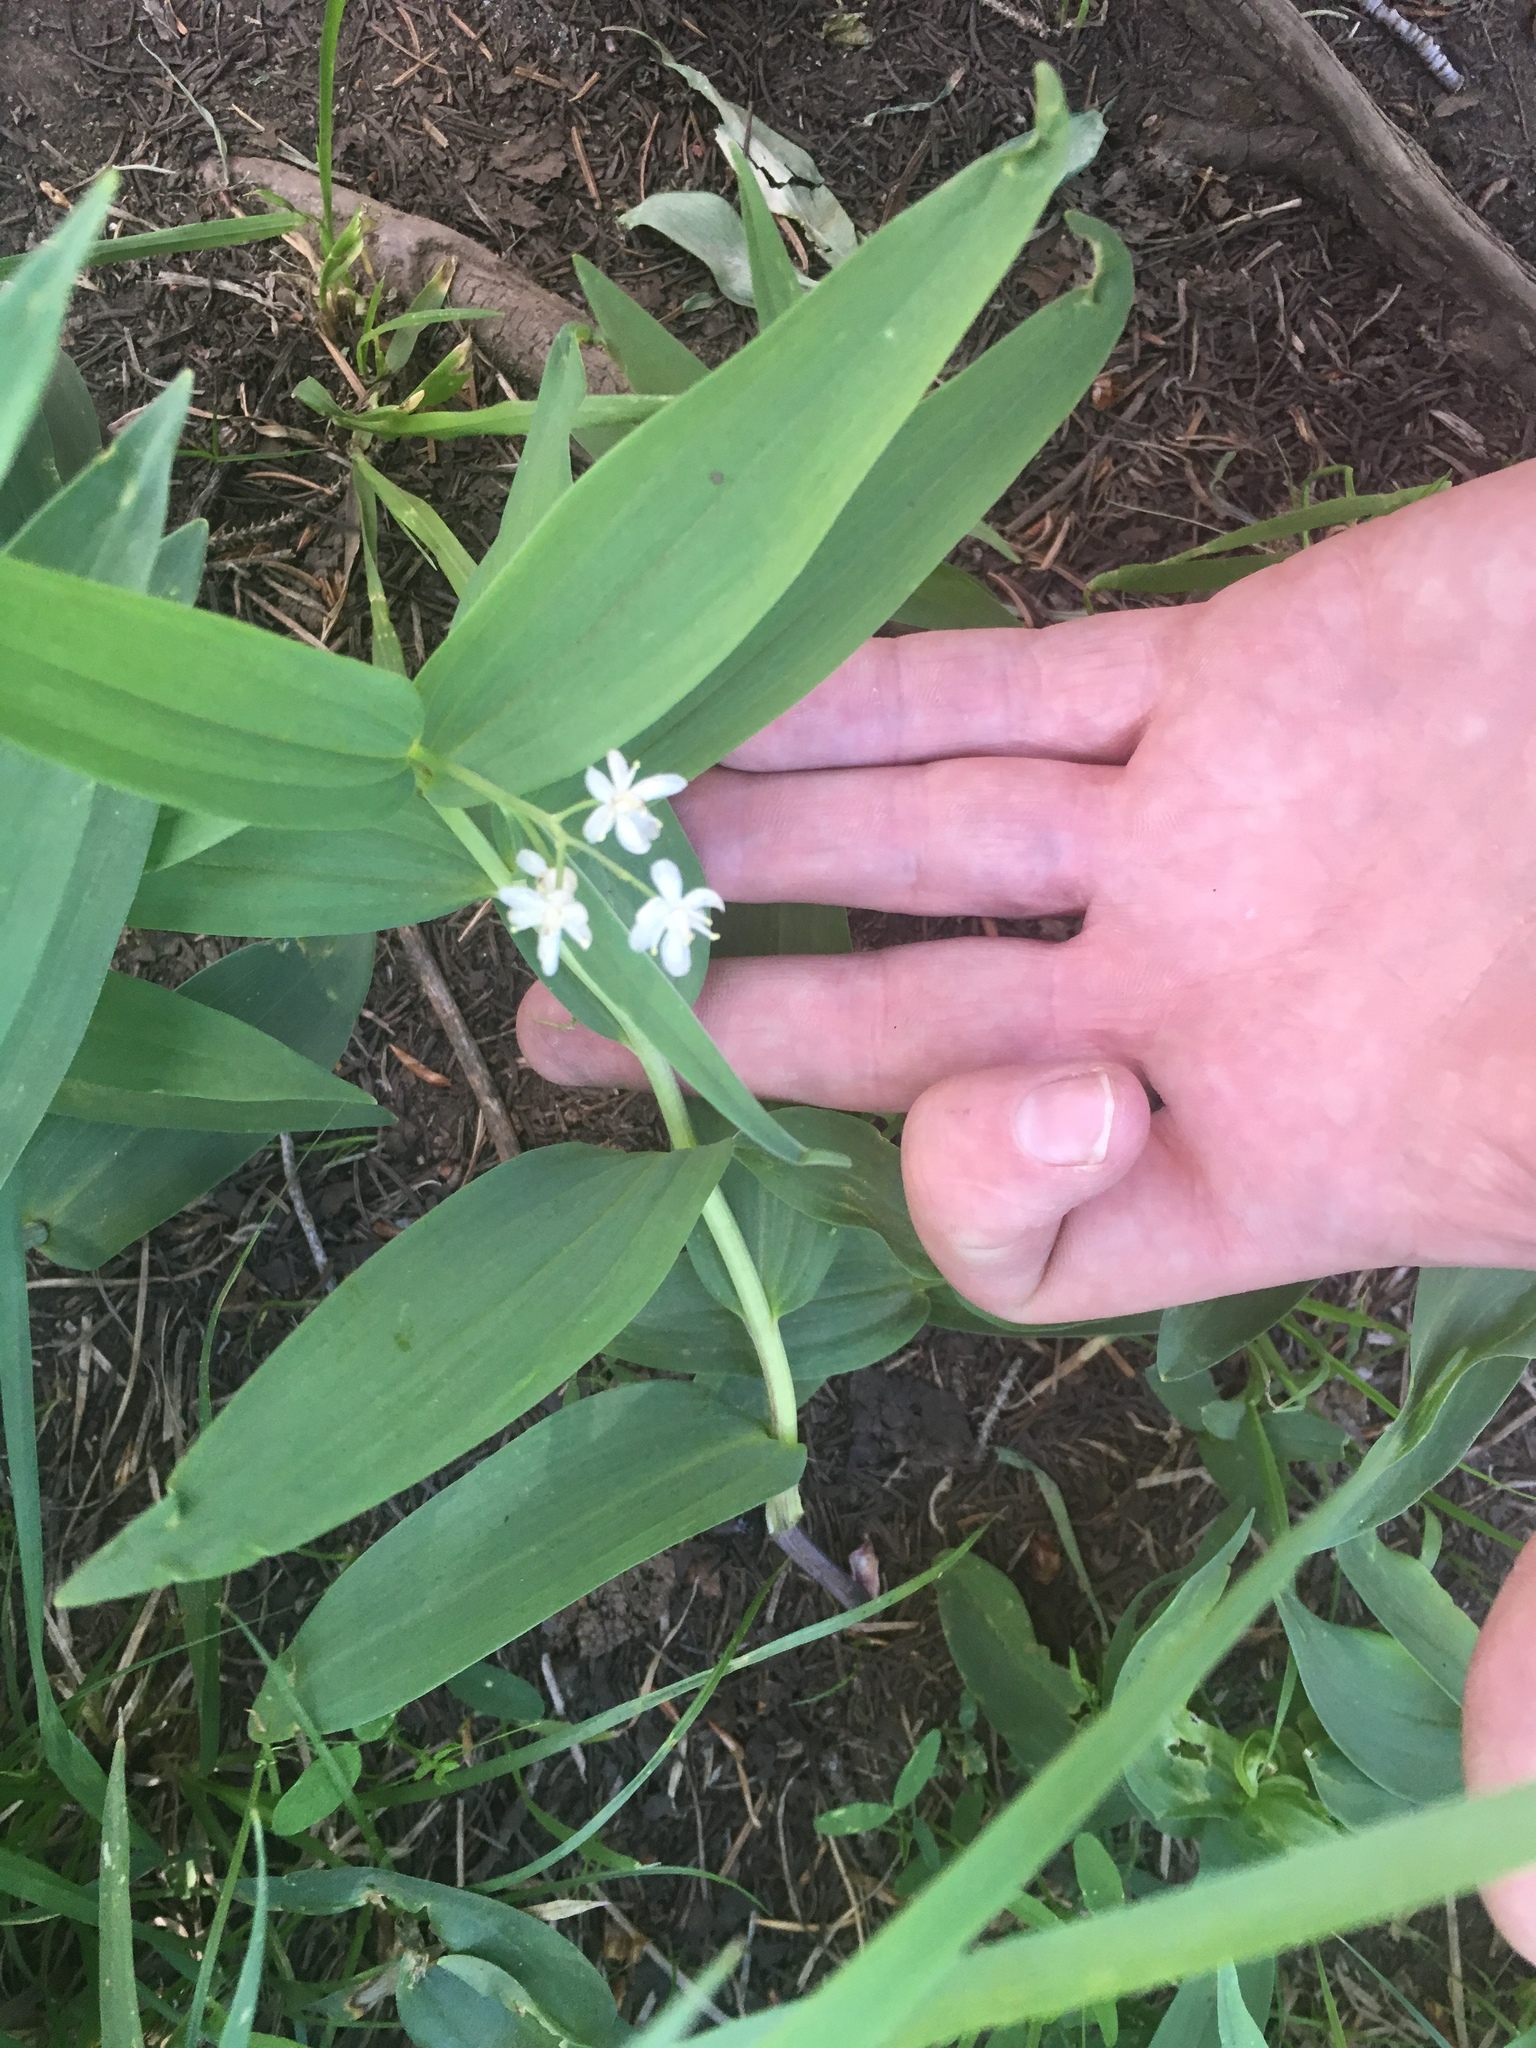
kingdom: Plantae
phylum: Tracheophyta
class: Liliopsida
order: Asparagales
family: Asparagaceae
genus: Maianthemum
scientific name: Maianthemum stellatum
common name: Little false solomon's seal
